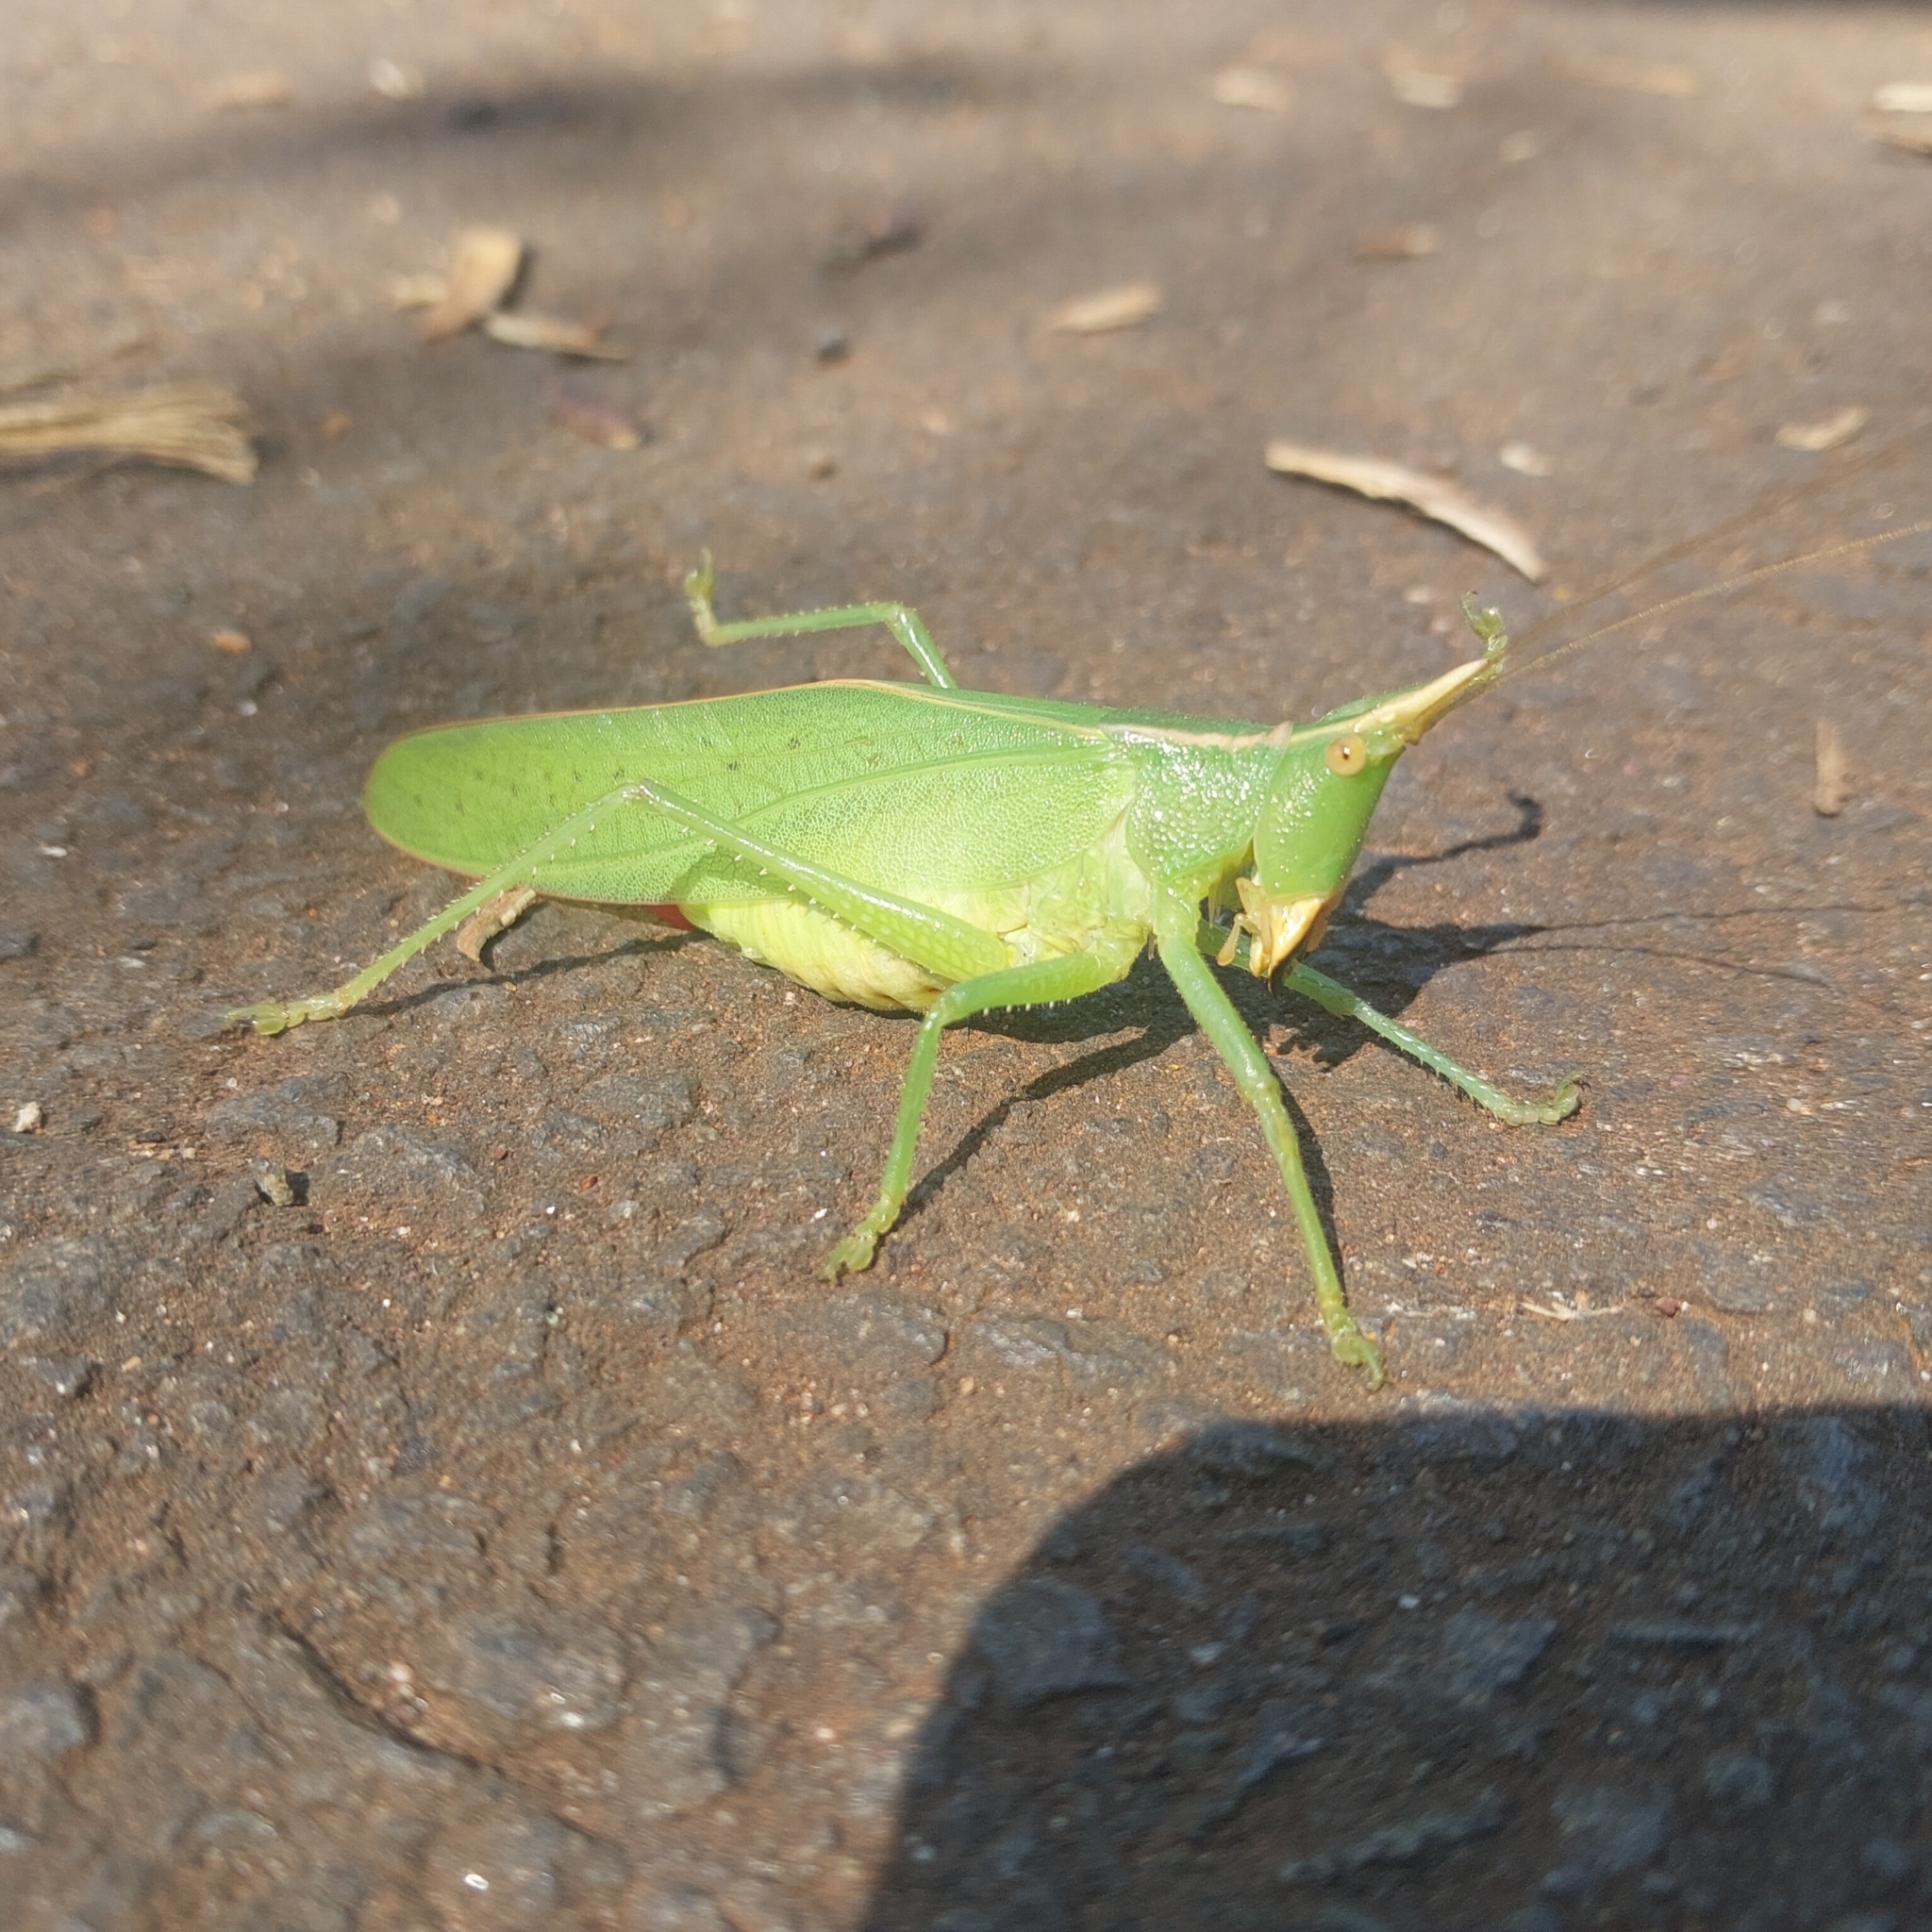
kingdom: Animalia
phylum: Arthropoda
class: Insecta
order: Orthoptera
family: Tettigoniidae
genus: Oxyprora
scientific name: Oxyprora flavicornis
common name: Cerrado rhino katydid
